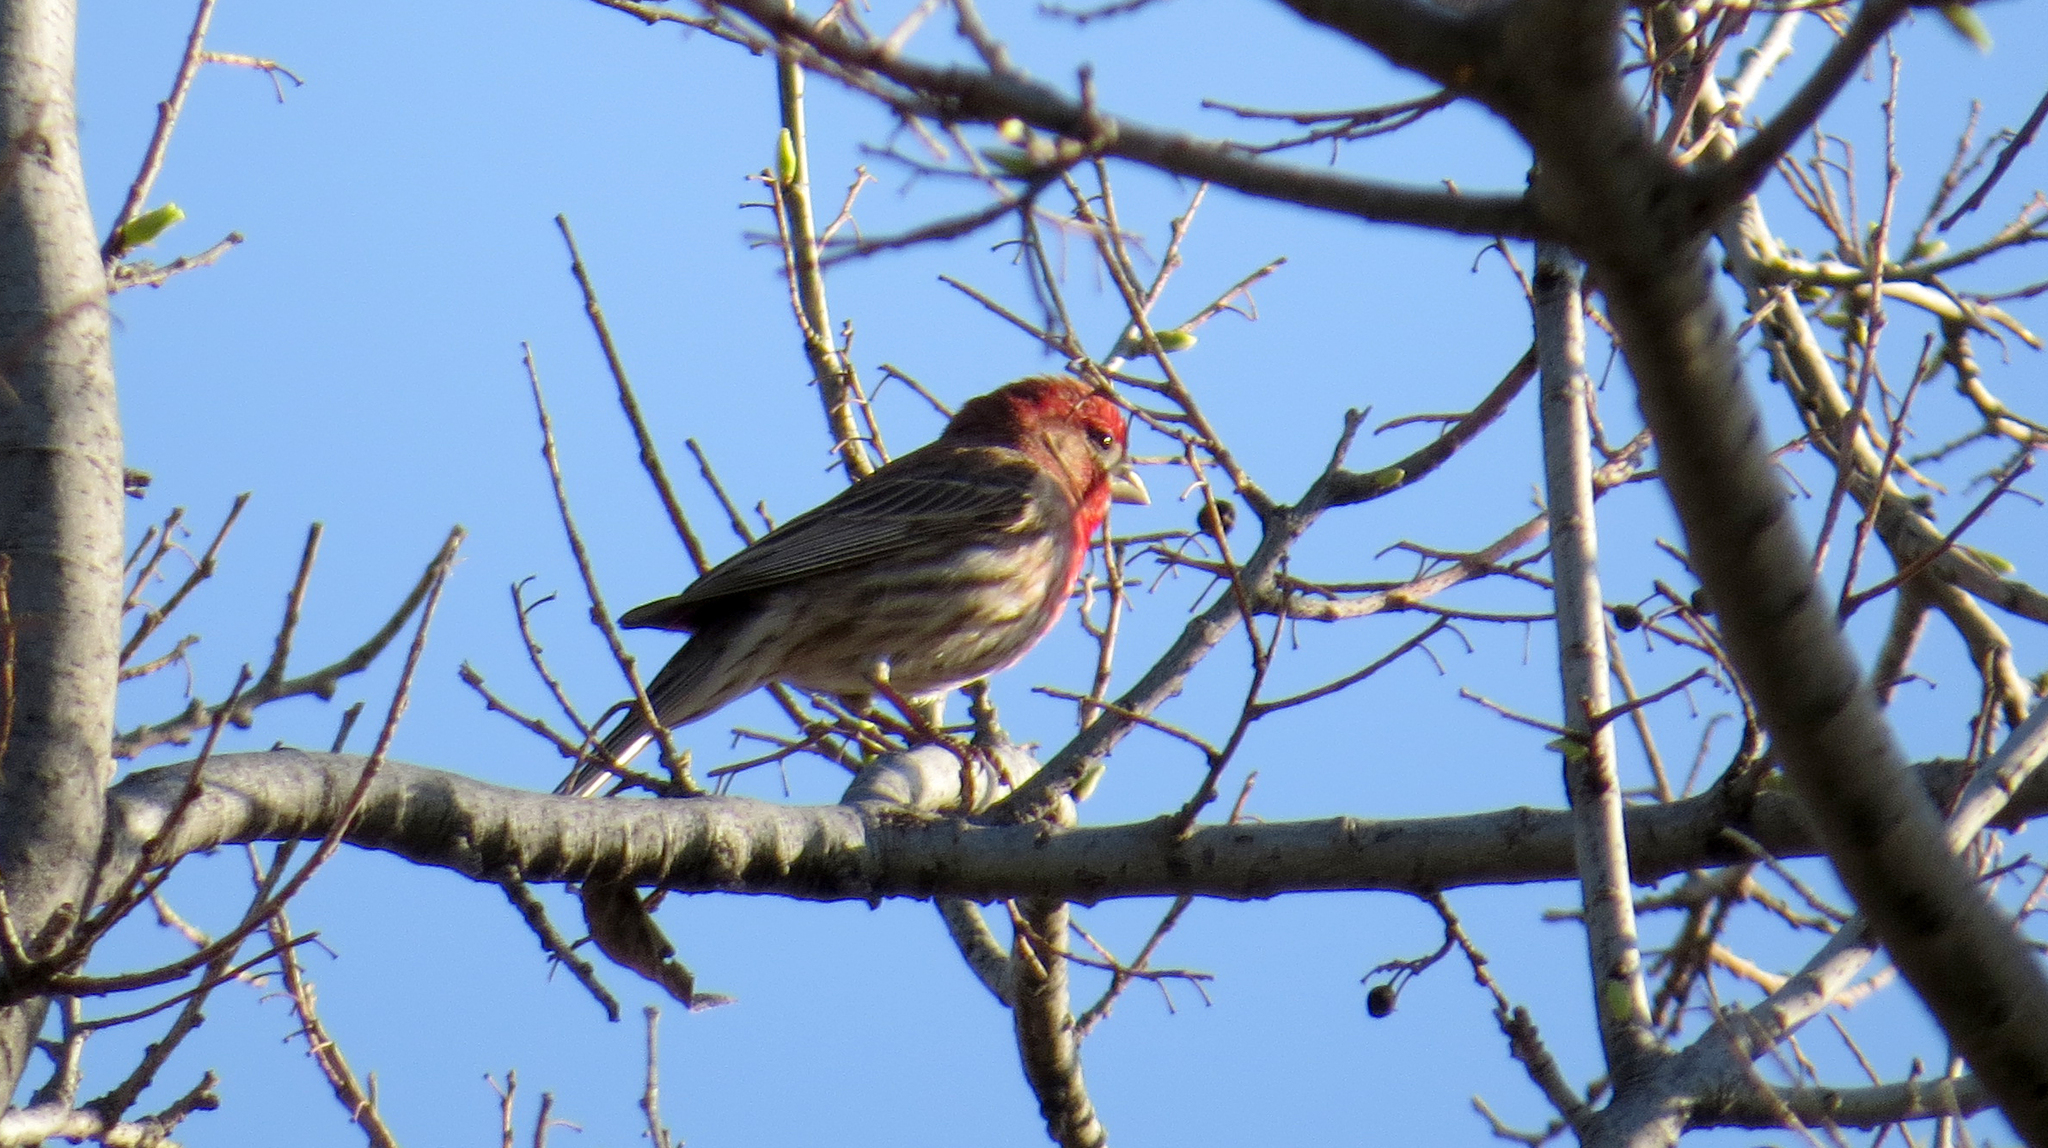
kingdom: Animalia
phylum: Chordata
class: Aves
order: Passeriformes
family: Fringillidae
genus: Haemorhous
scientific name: Haemorhous mexicanus
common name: House finch
